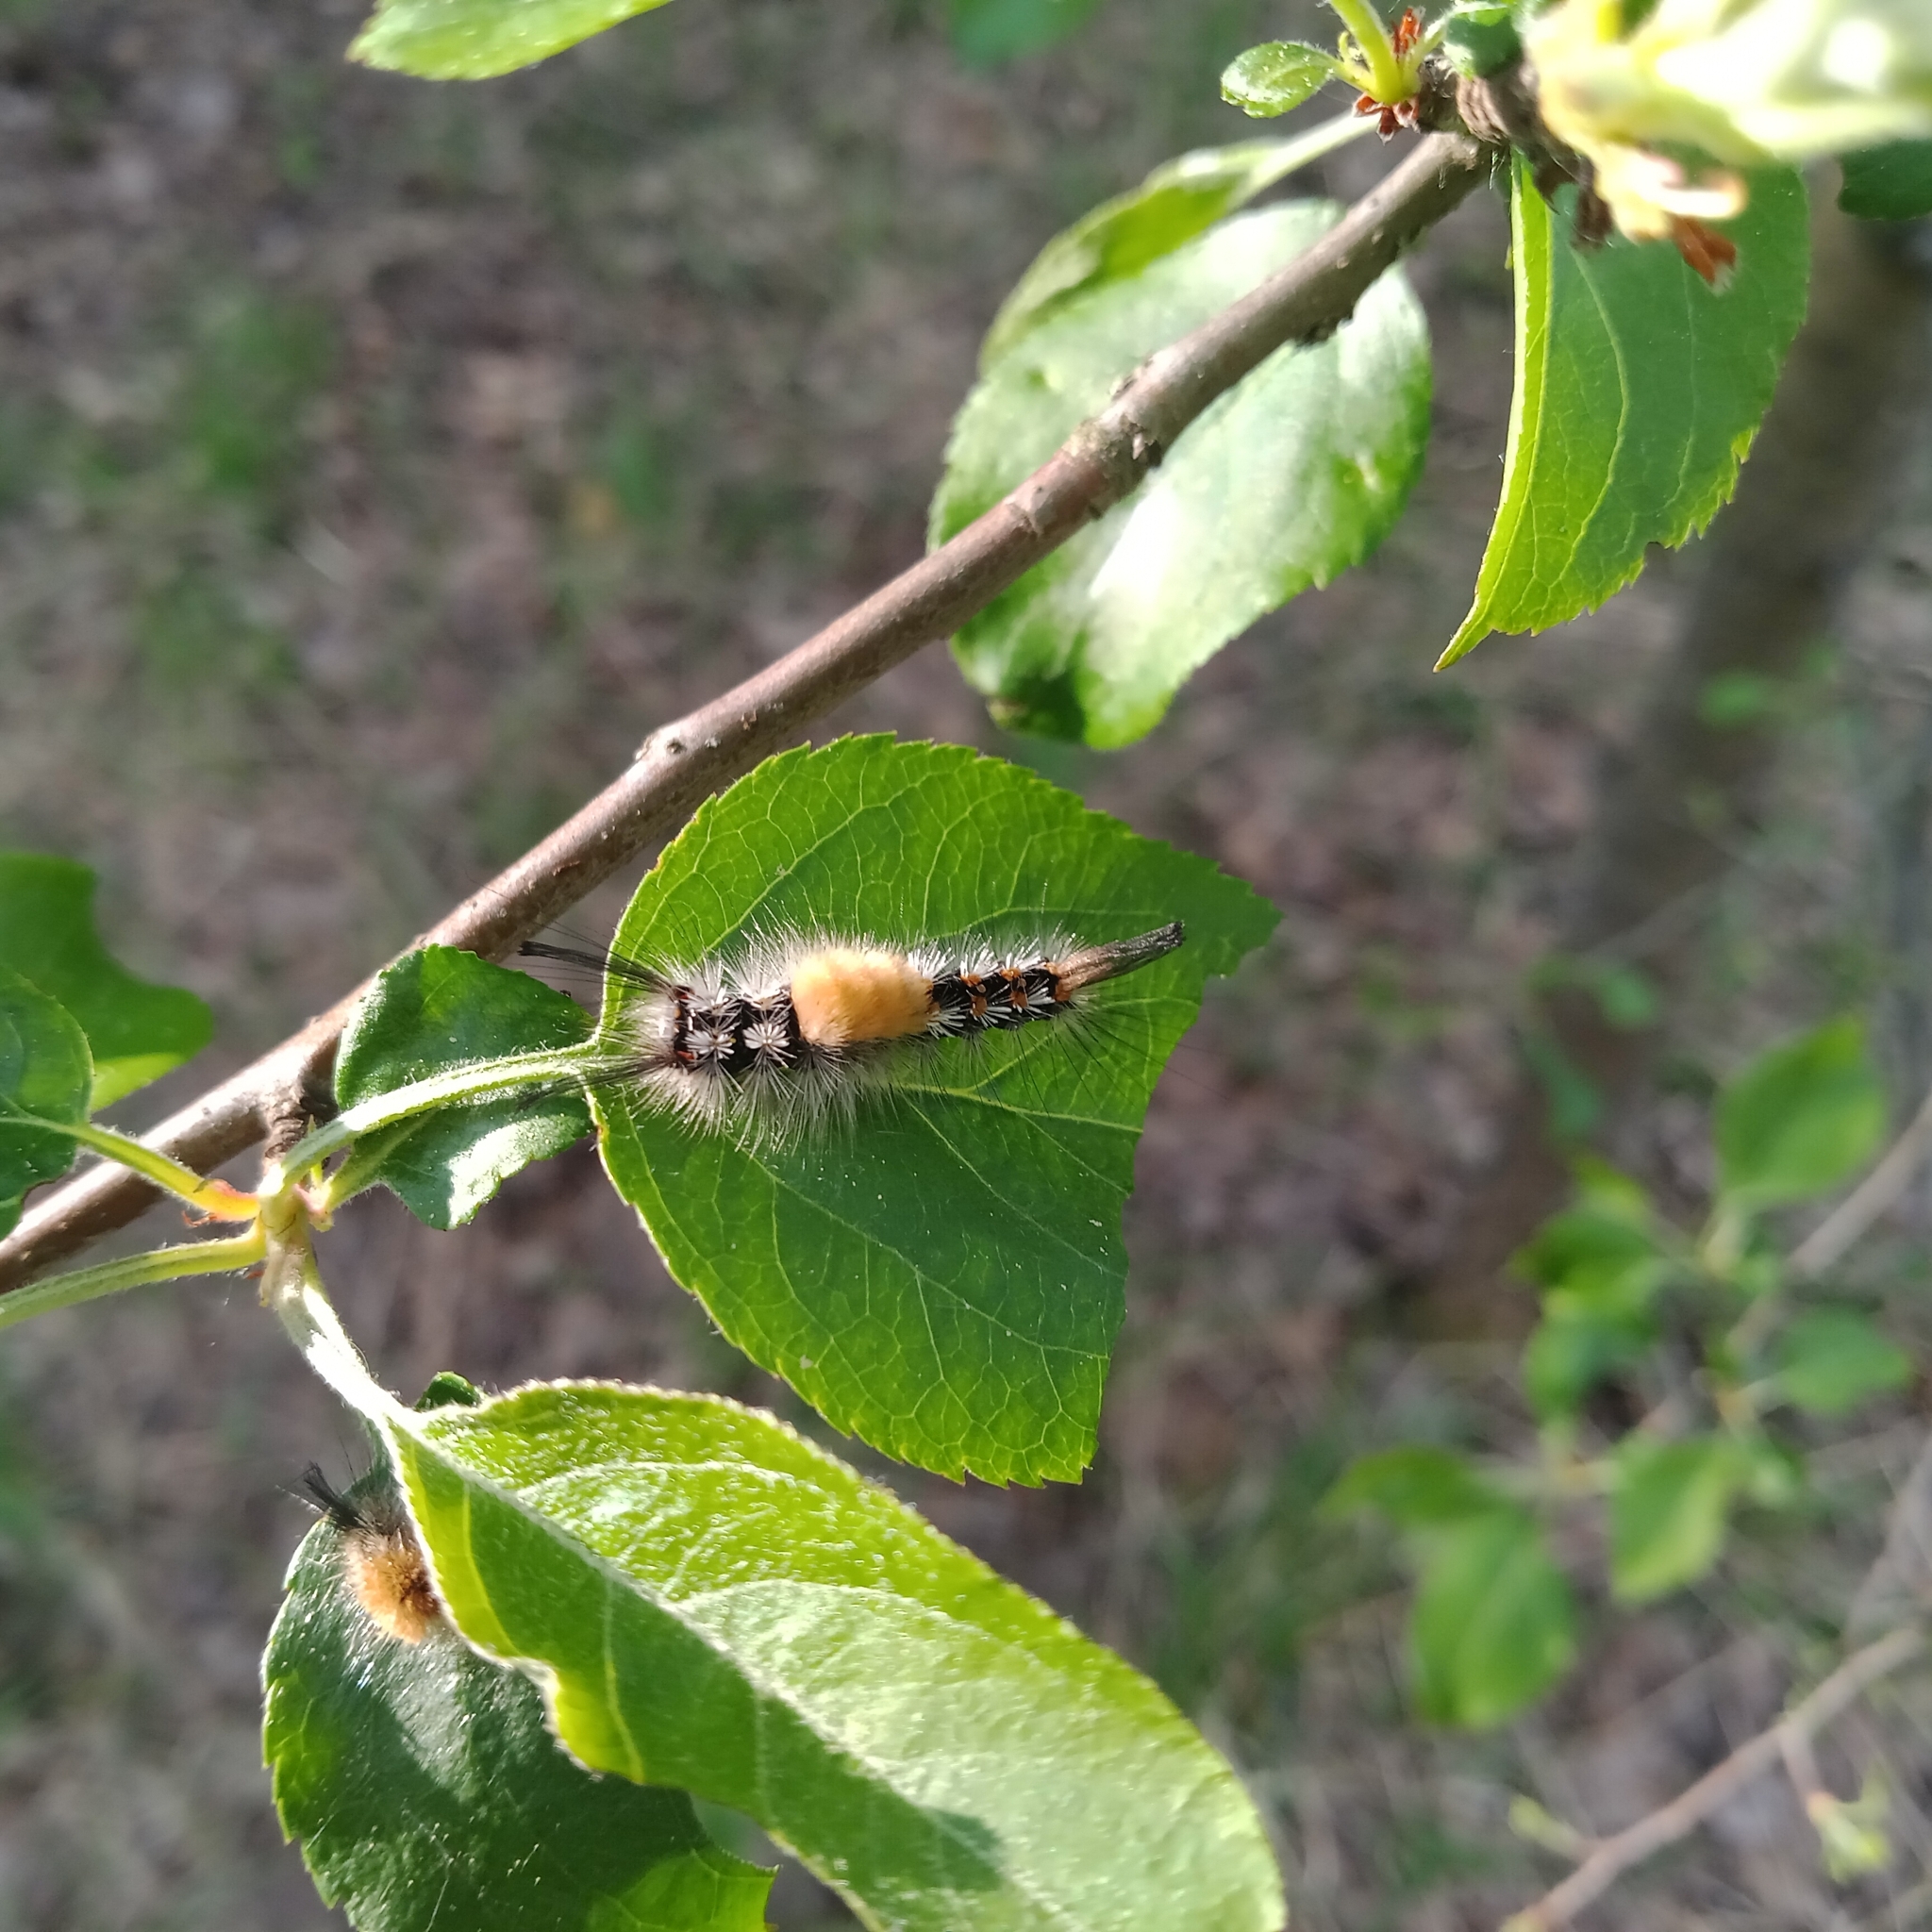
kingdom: Animalia
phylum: Arthropoda
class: Insecta
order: Lepidoptera
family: Erebidae
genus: Orgyia
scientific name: Orgyia recens
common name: Scarce vapourer
